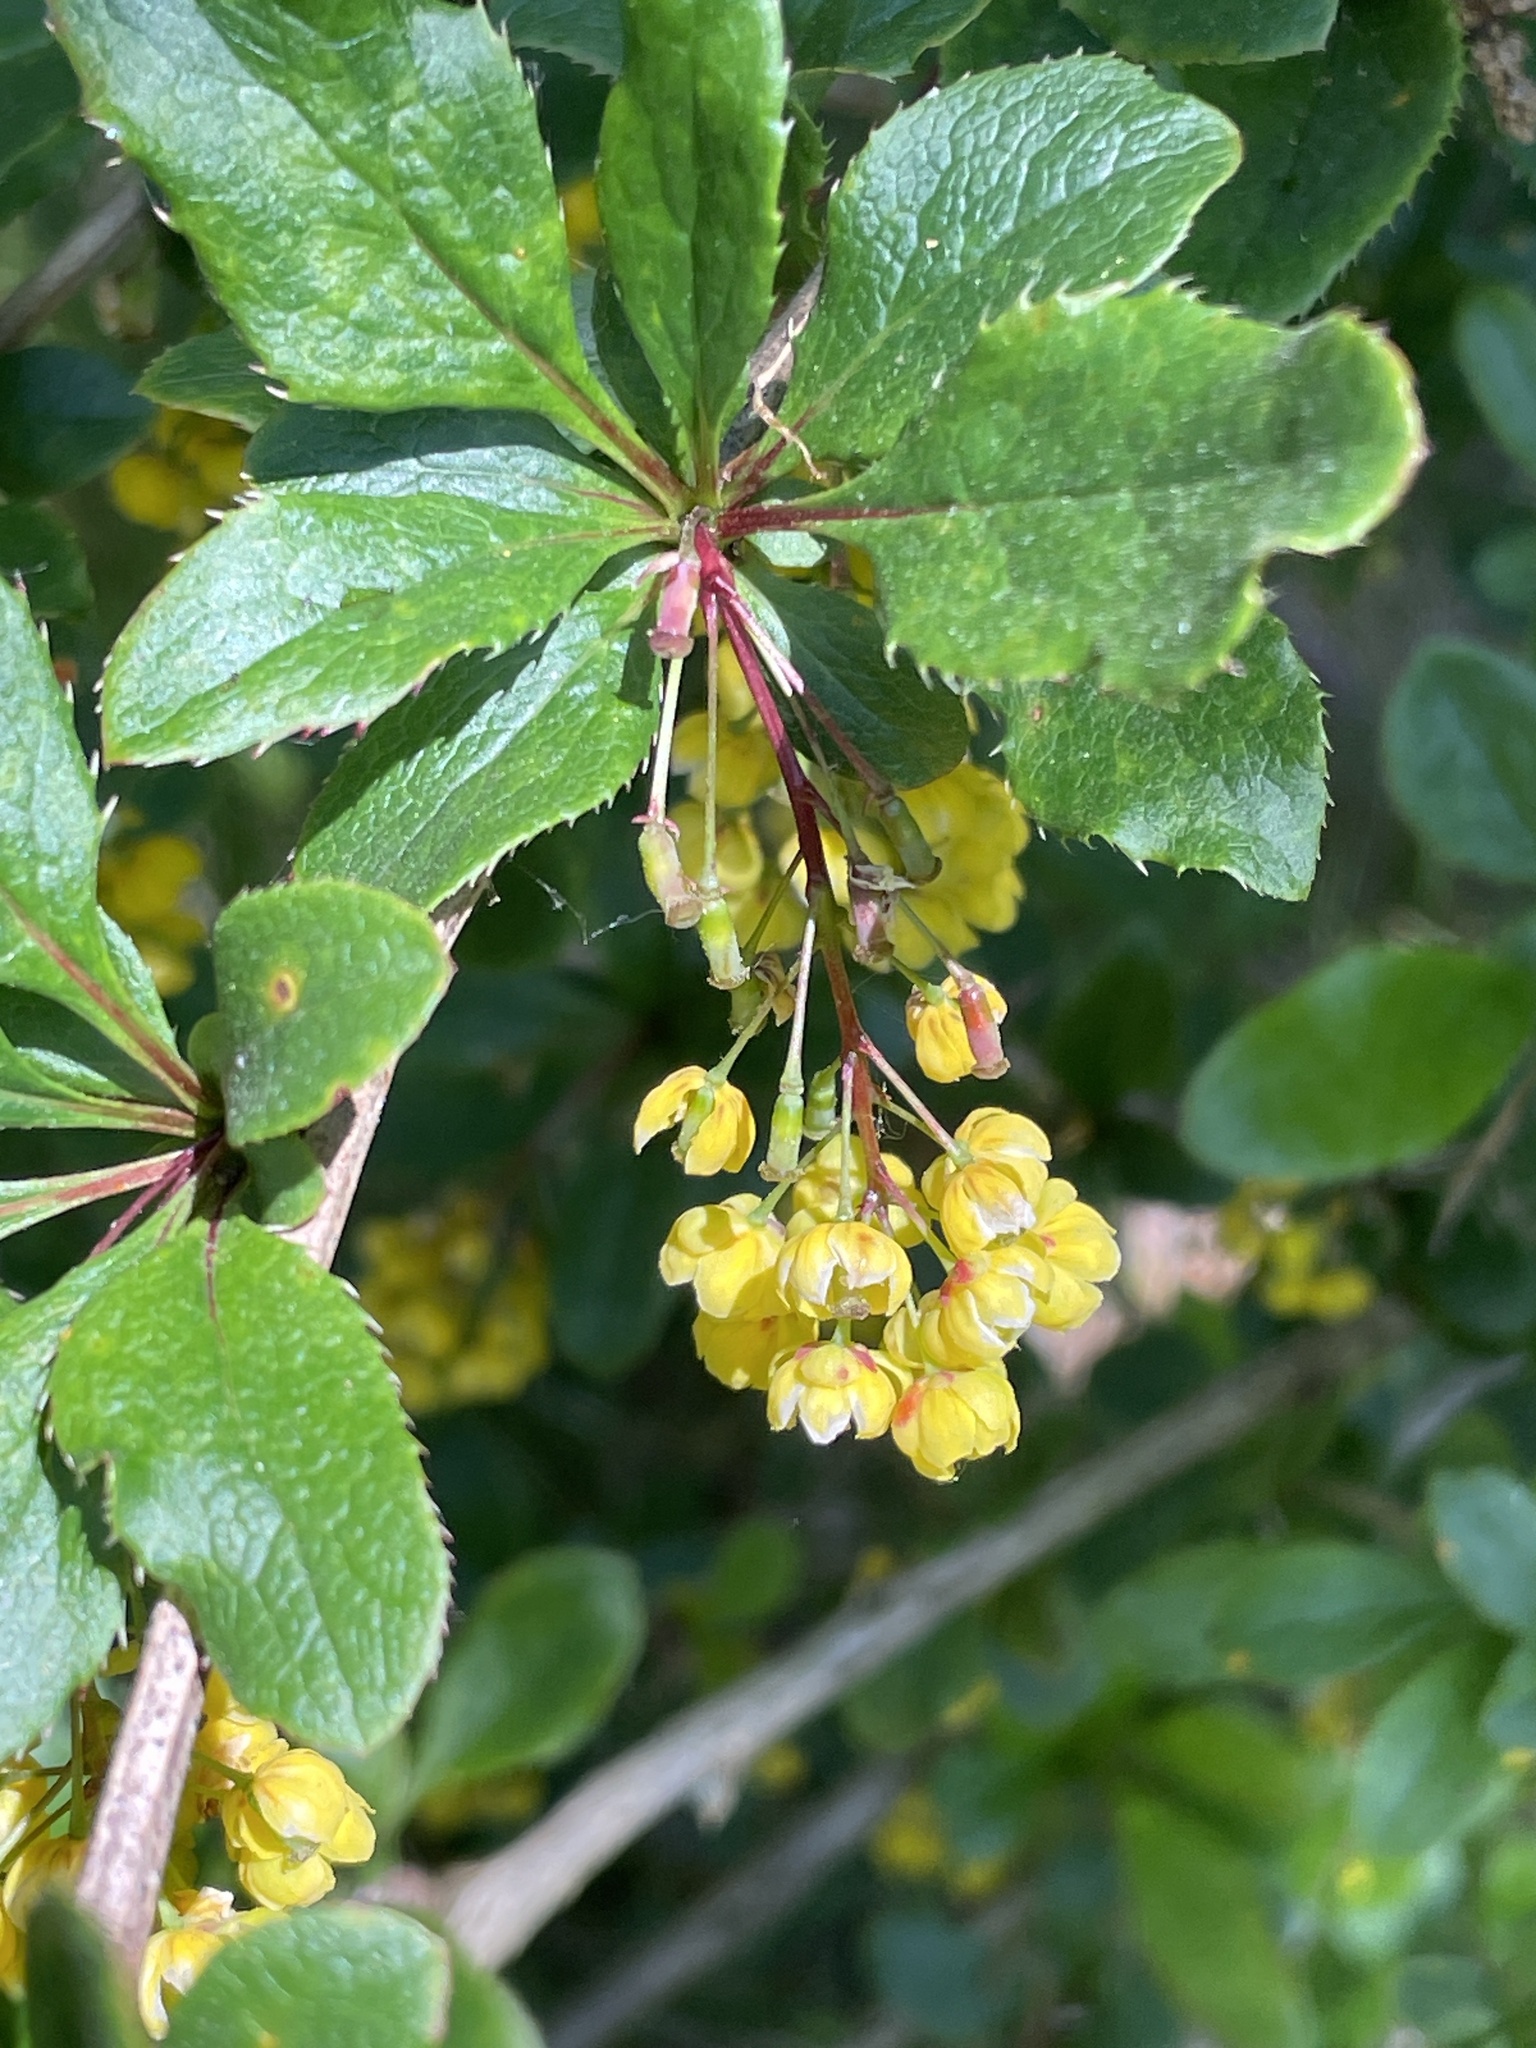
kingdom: Plantae
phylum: Tracheophyta
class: Magnoliopsida
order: Ranunculales
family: Berberidaceae
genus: Berberis
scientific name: Berberis vulgaris
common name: Barberry
